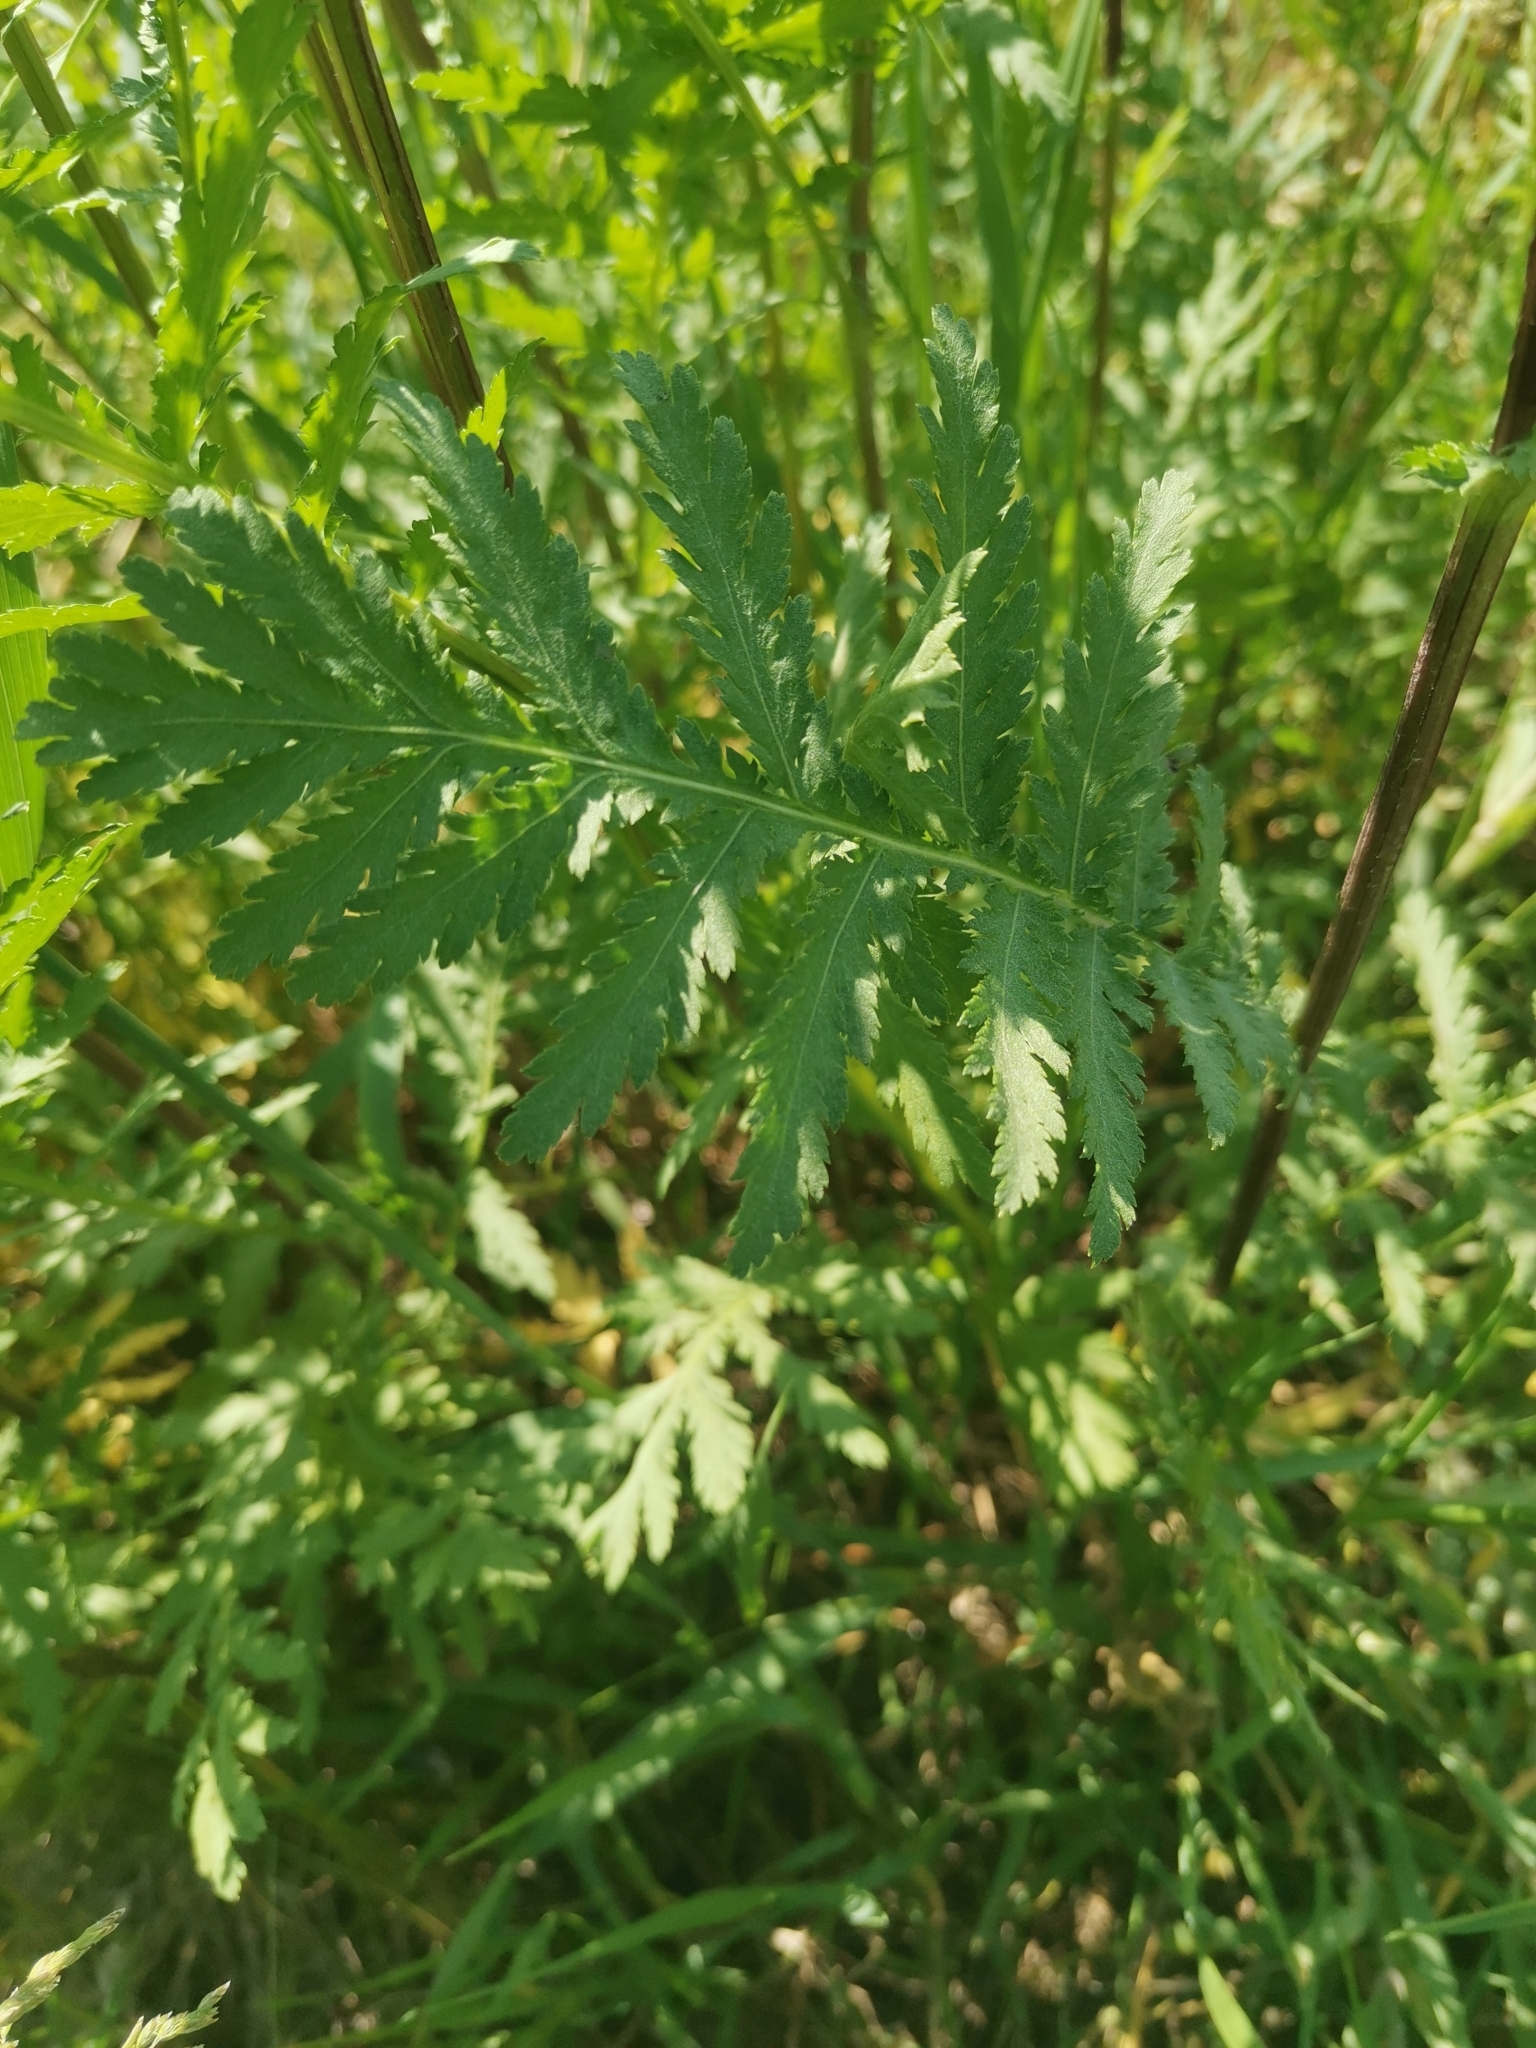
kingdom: Plantae
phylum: Tracheophyta
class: Magnoliopsida
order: Asterales
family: Asteraceae
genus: Tanacetum
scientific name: Tanacetum vulgare
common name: Common tansy
